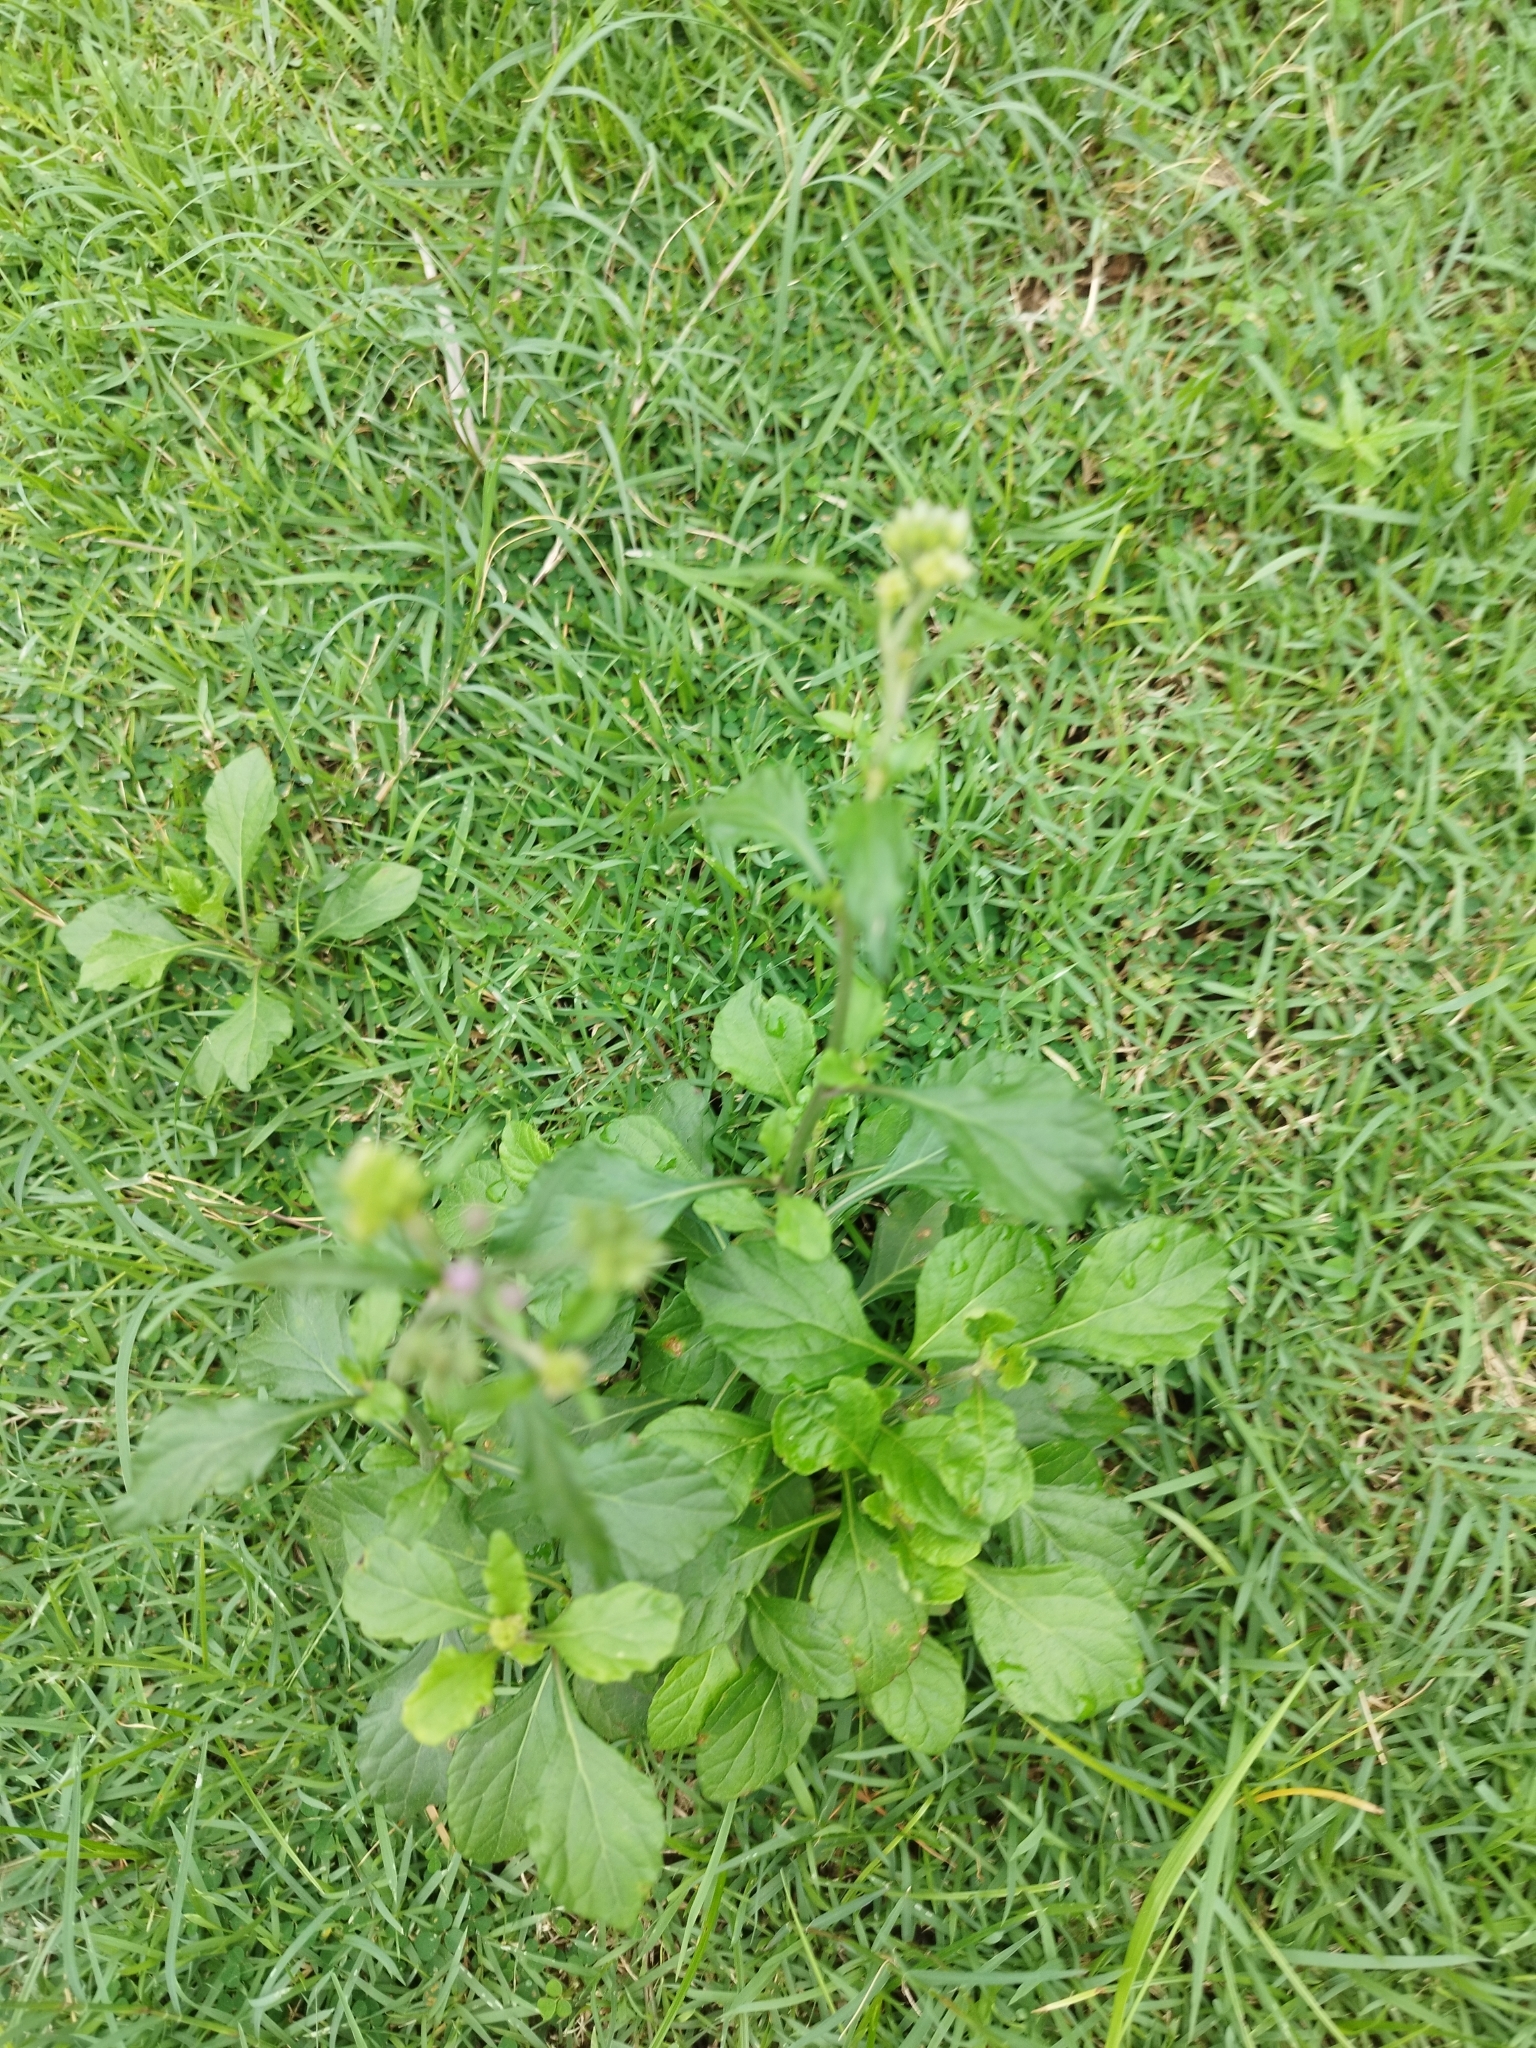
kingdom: Plantae
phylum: Tracheophyta
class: Magnoliopsida
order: Asterales
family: Asteraceae
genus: Cyanthillium
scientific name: Cyanthillium cinereum
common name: Little ironweed
